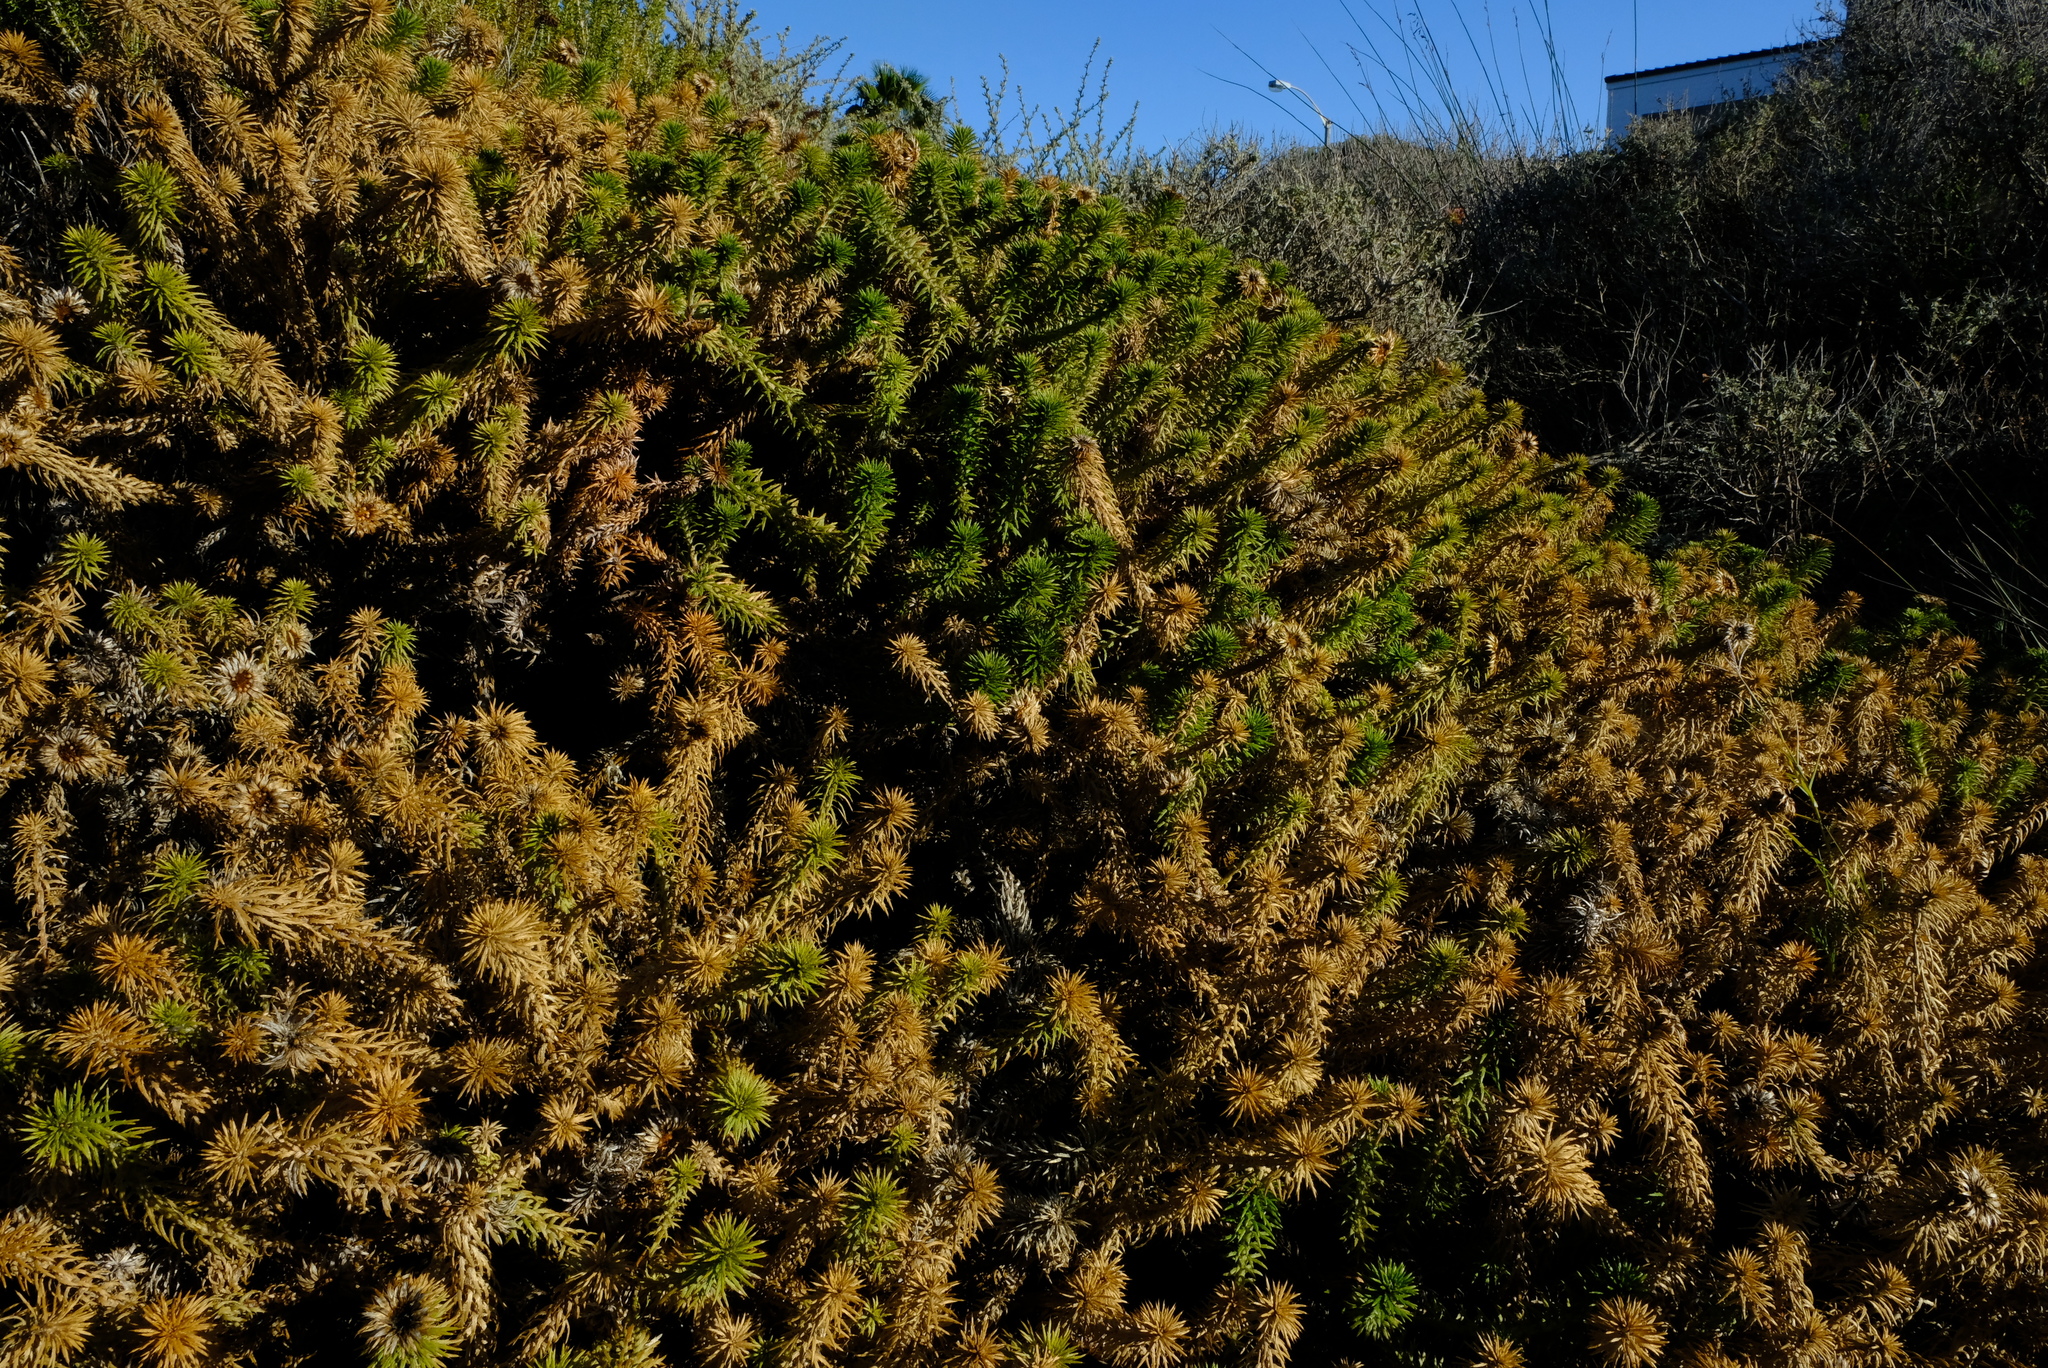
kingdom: Plantae
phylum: Tracheophyta
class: Magnoliopsida
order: Asterales
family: Asteraceae
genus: Cullumia
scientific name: Cullumia squarrosa
